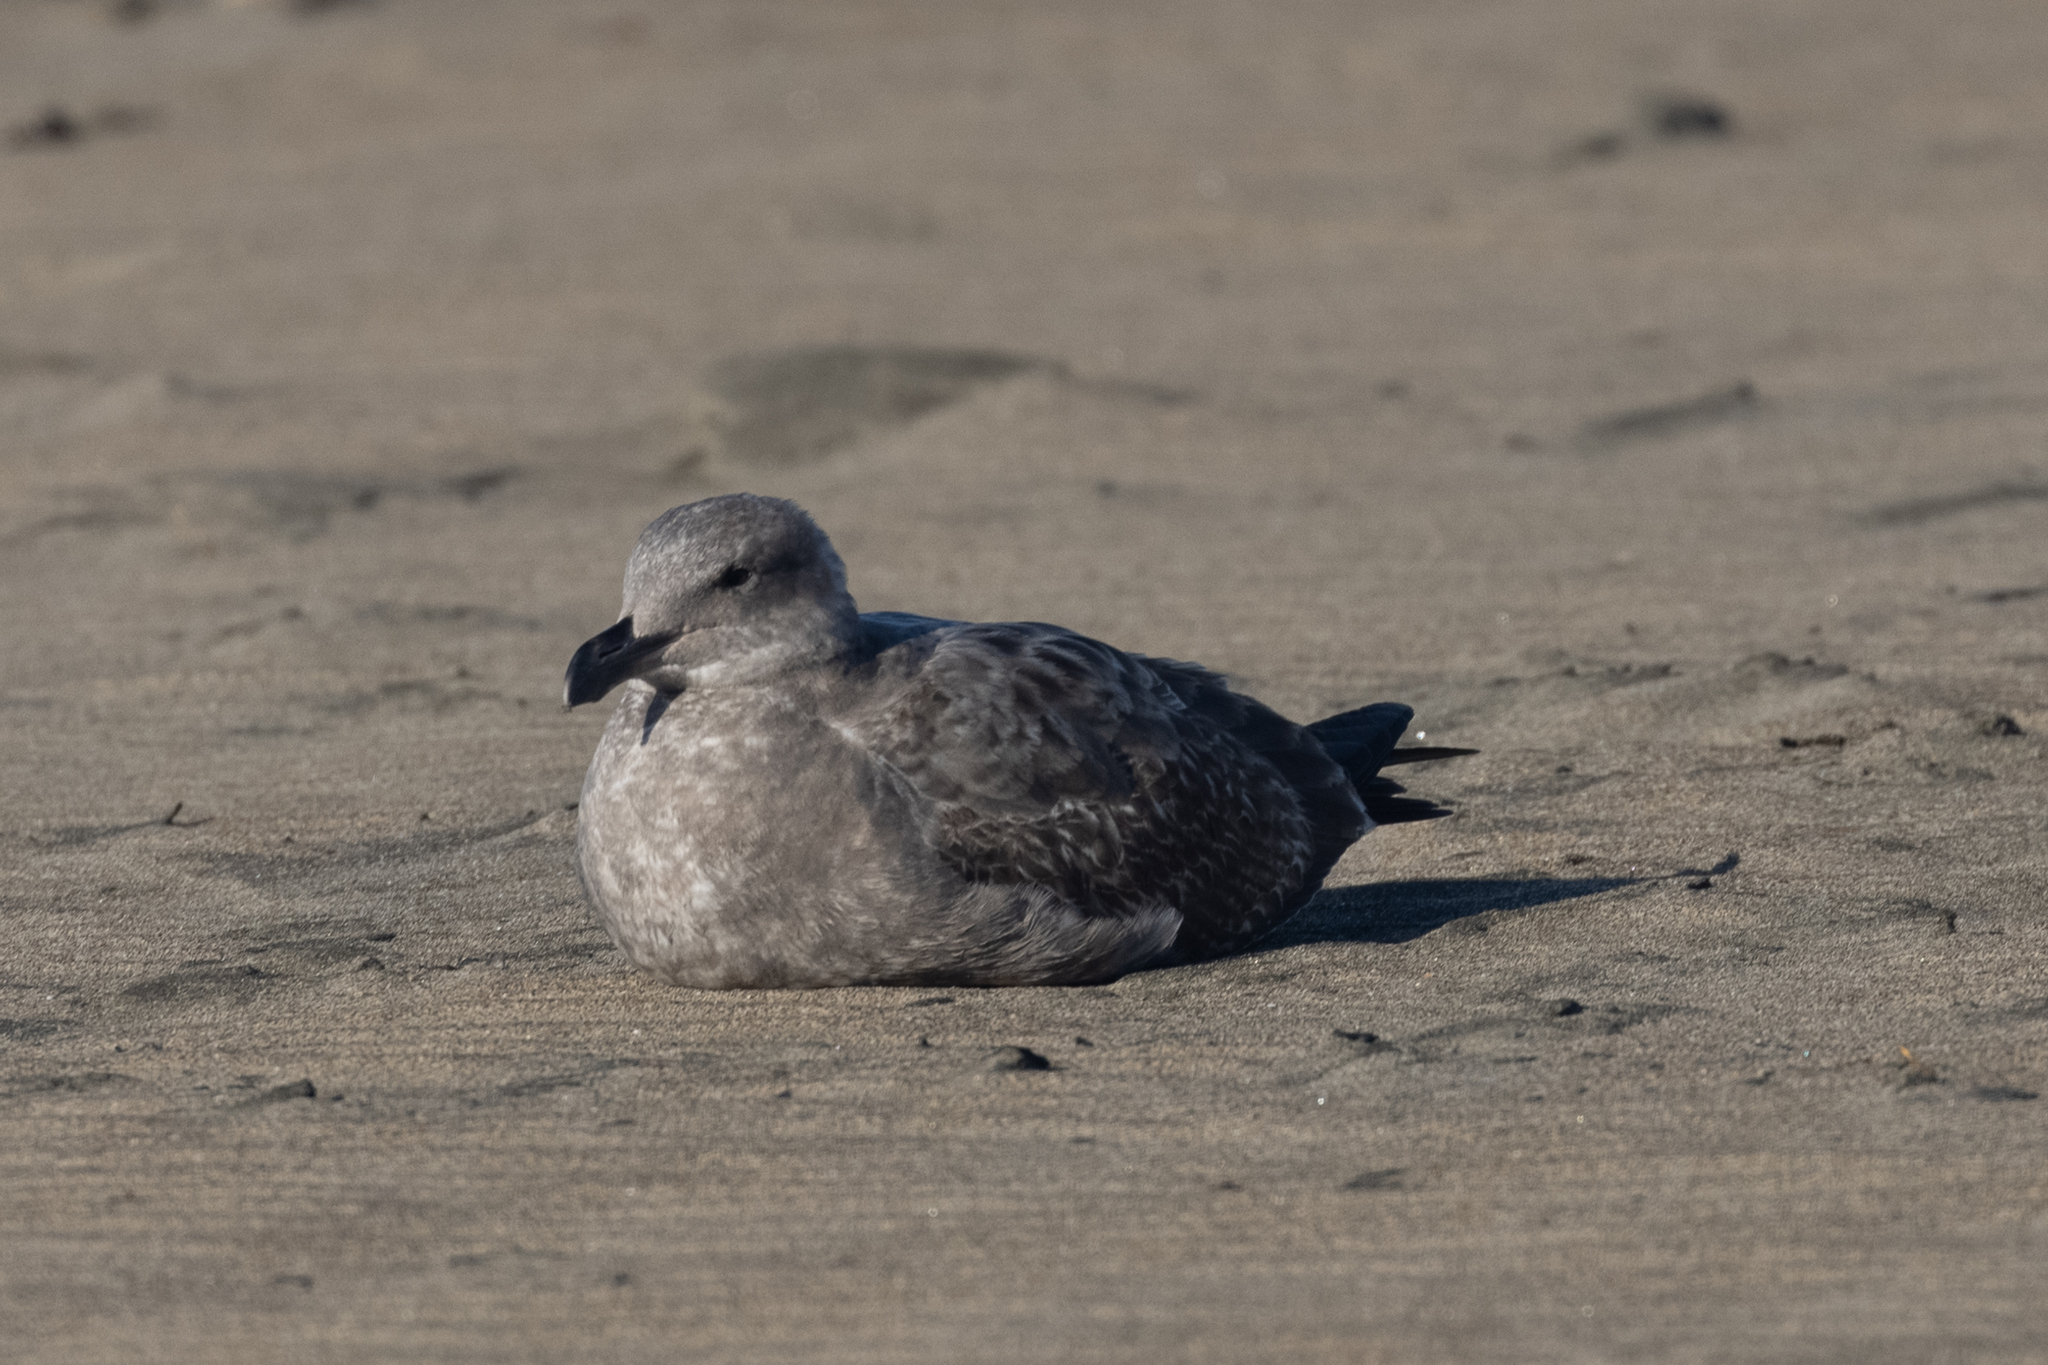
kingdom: Animalia
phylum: Chordata
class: Aves
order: Charadriiformes
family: Laridae
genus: Larus
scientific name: Larus occidentalis
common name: Western gull
